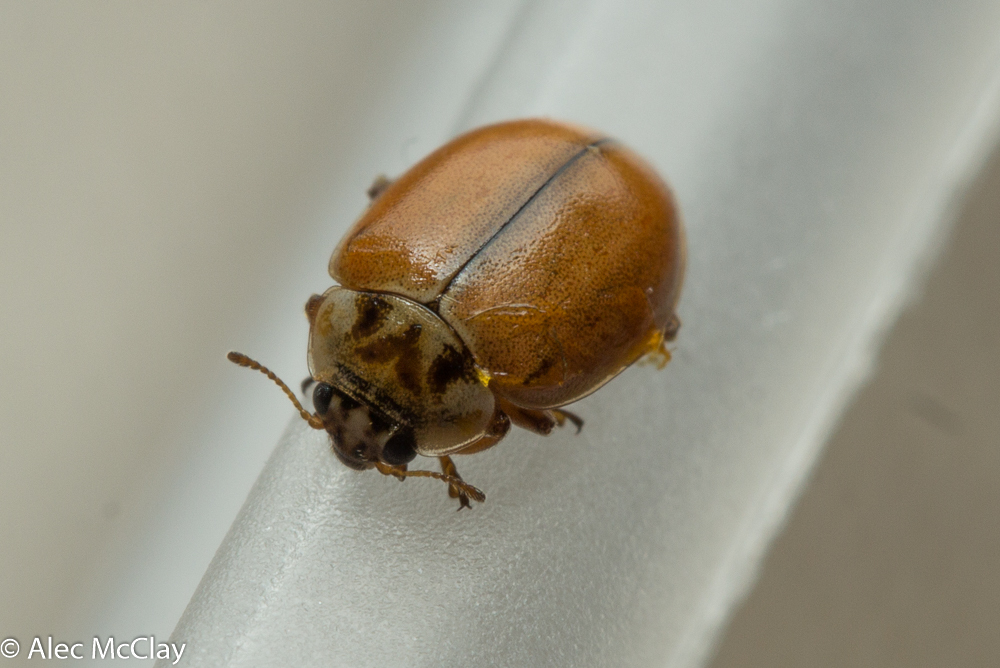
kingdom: Animalia
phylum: Arthropoda
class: Insecta
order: Coleoptera
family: Coccinellidae
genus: Aphidecta
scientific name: Aphidecta obliterata
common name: Larch ladybird
